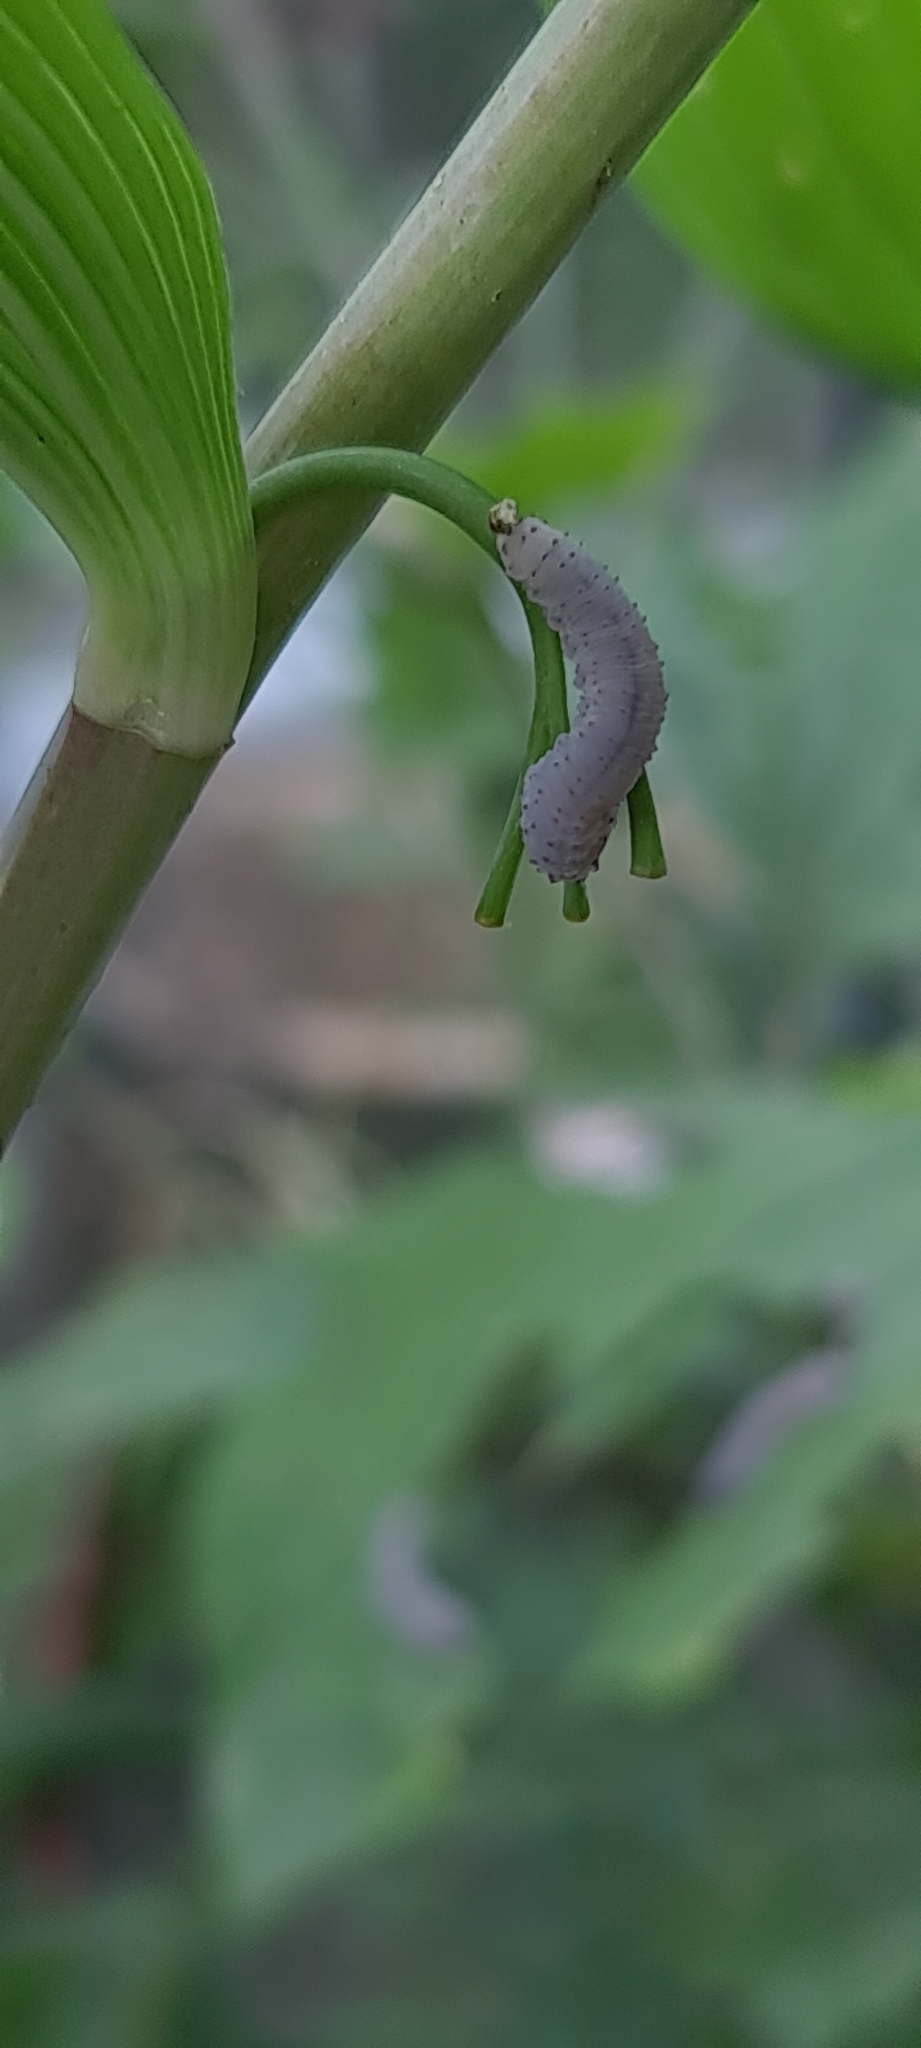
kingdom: Animalia
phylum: Arthropoda
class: Insecta
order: Hymenoptera
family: Tenthredinidae
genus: Phymatocera
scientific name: Phymatocera aterrima
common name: Solomon's-seal sawfly
